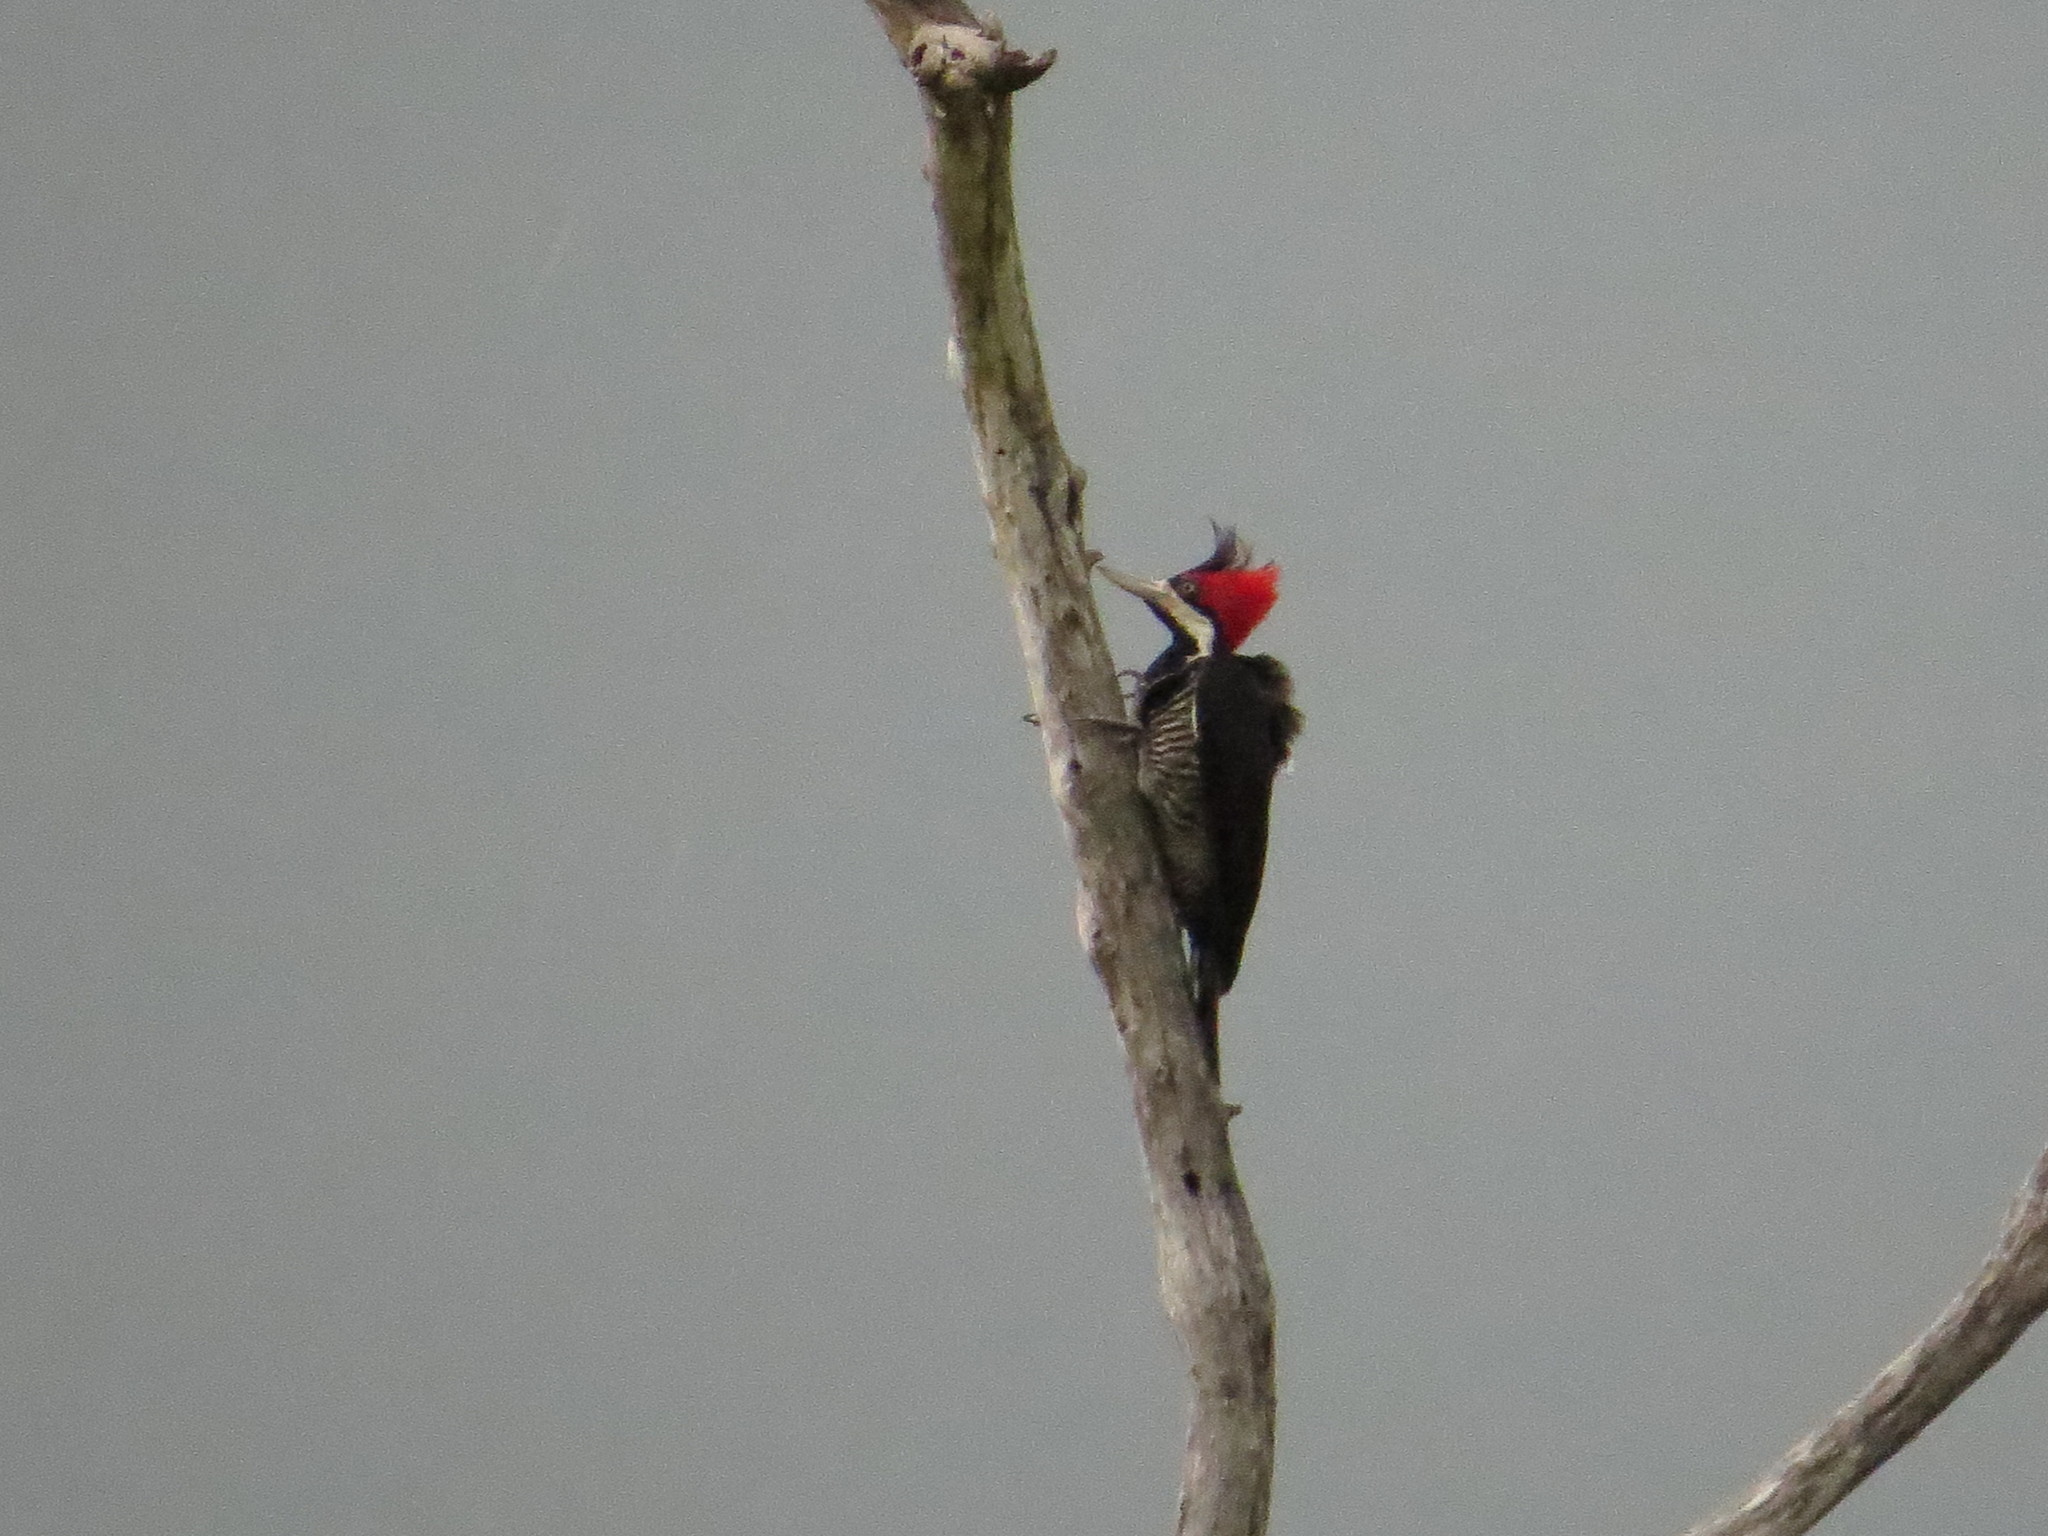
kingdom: Animalia
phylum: Chordata
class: Aves
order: Piciformes
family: Picidae
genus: Campephilus
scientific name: Campephilus melanoleucos
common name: Crimson-crested woodpecker
